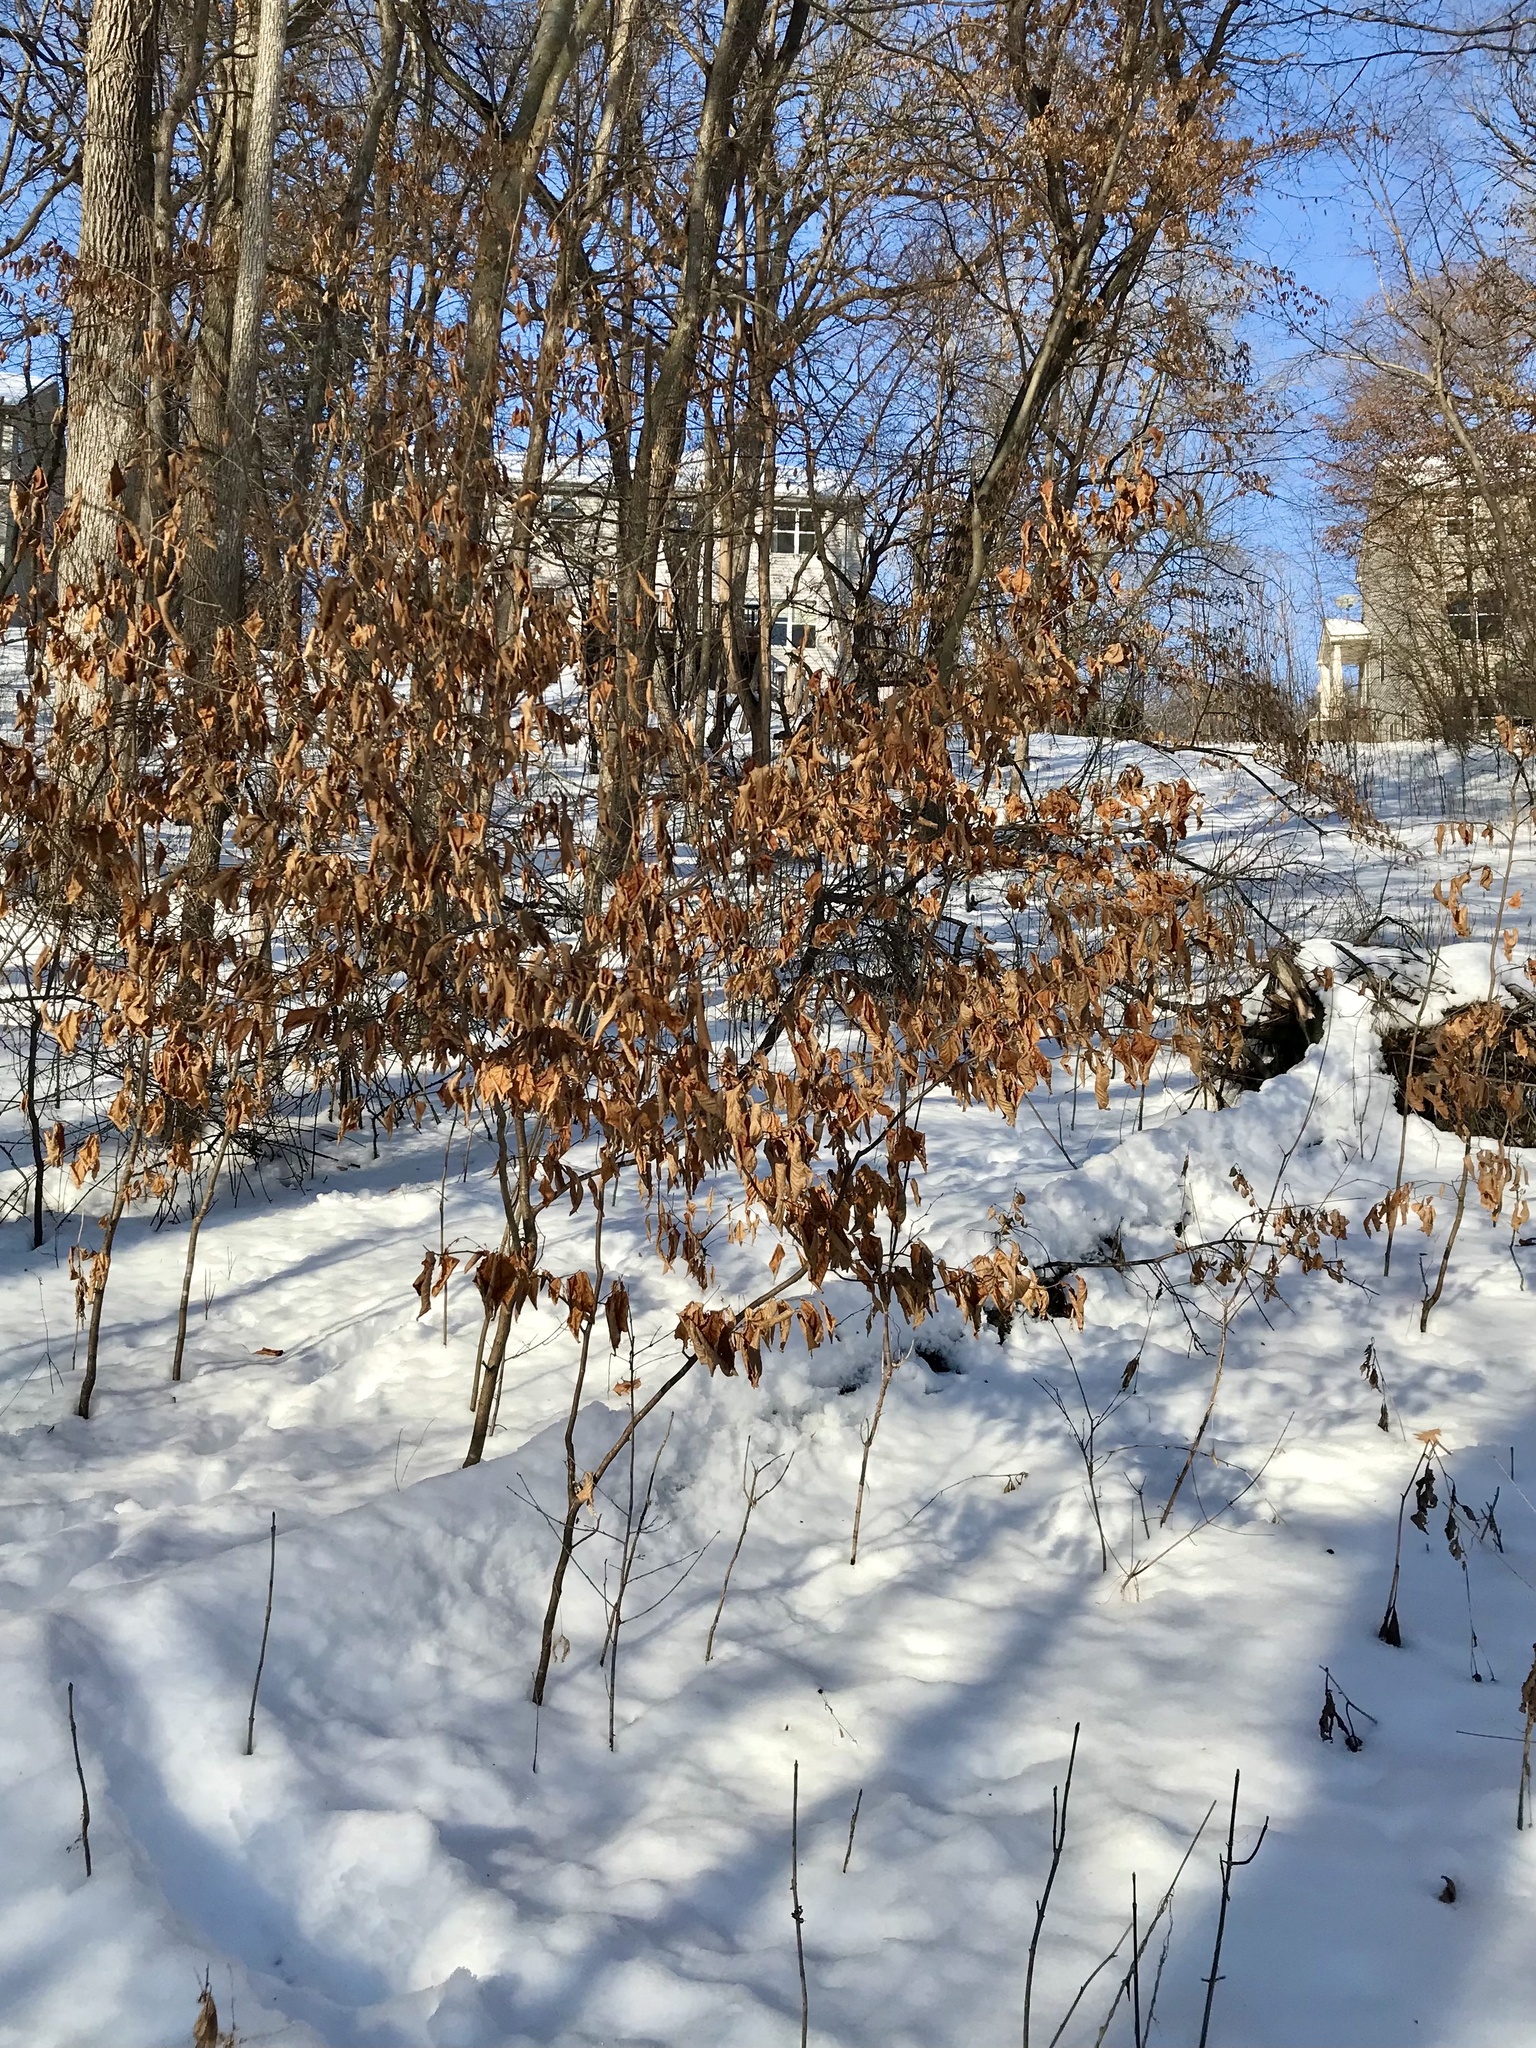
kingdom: Plantae
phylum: Tracheophyta
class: Magnoliopsida
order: Fagales
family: Betulaceae
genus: Ostrya
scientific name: Ostrya virginiana
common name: Ironwood
